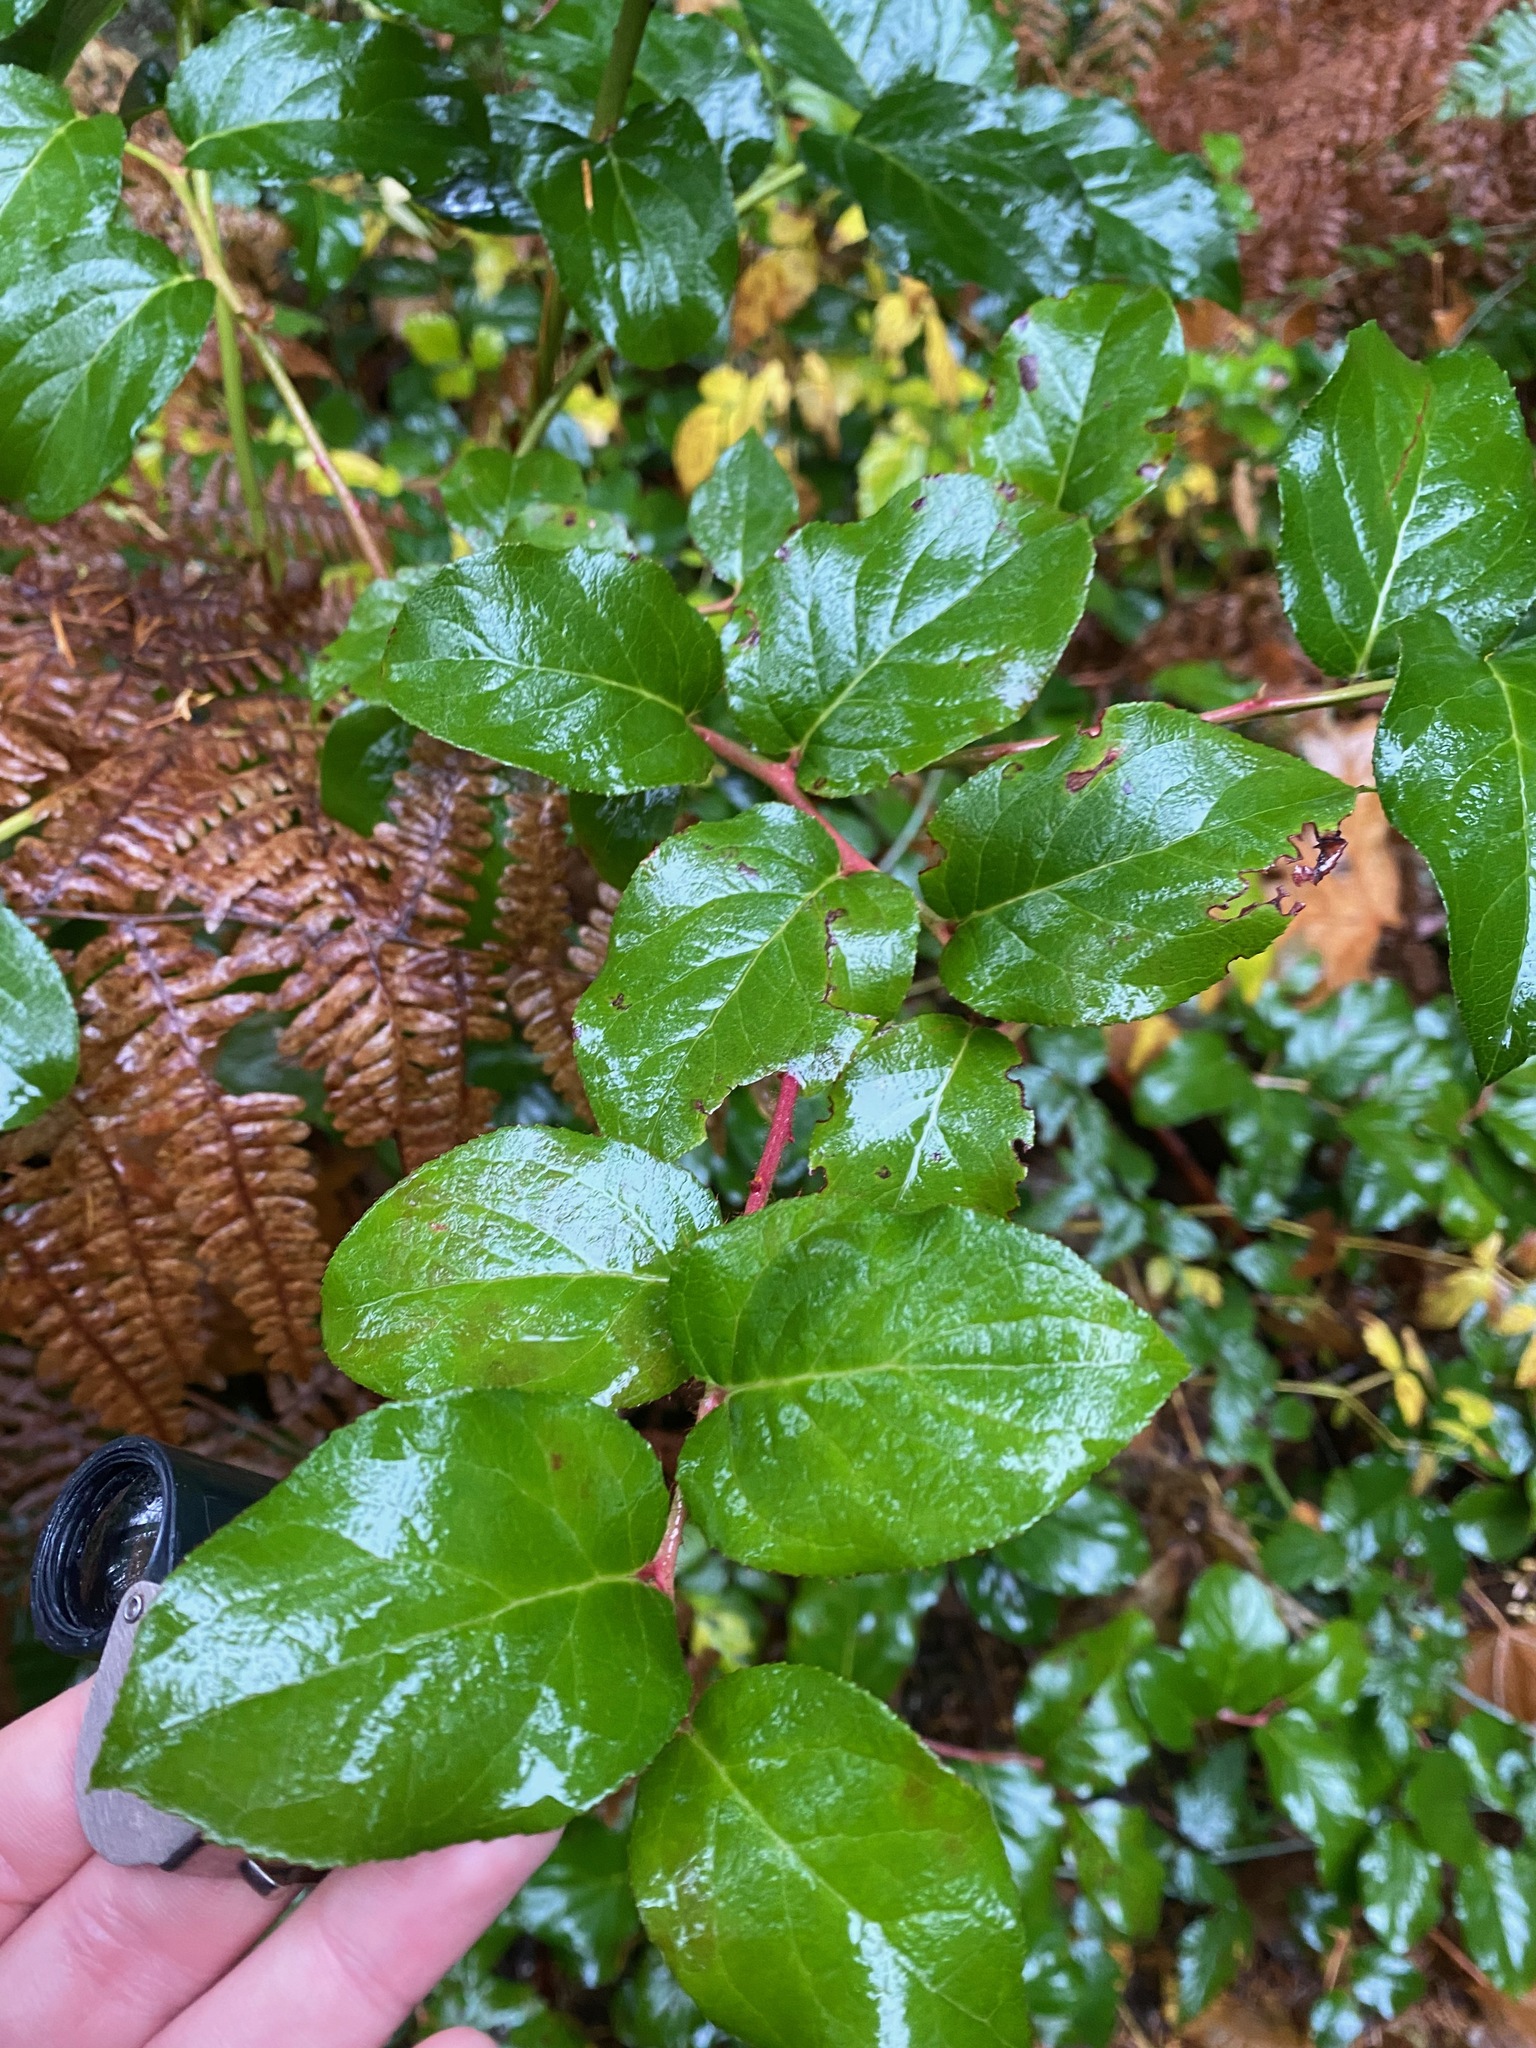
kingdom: Plantae
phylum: Tracheophyta
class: Magnoliopsida
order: Ericales
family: Ericaceae
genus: Gaultheria
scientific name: Gaultheria shallon
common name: Shallon
